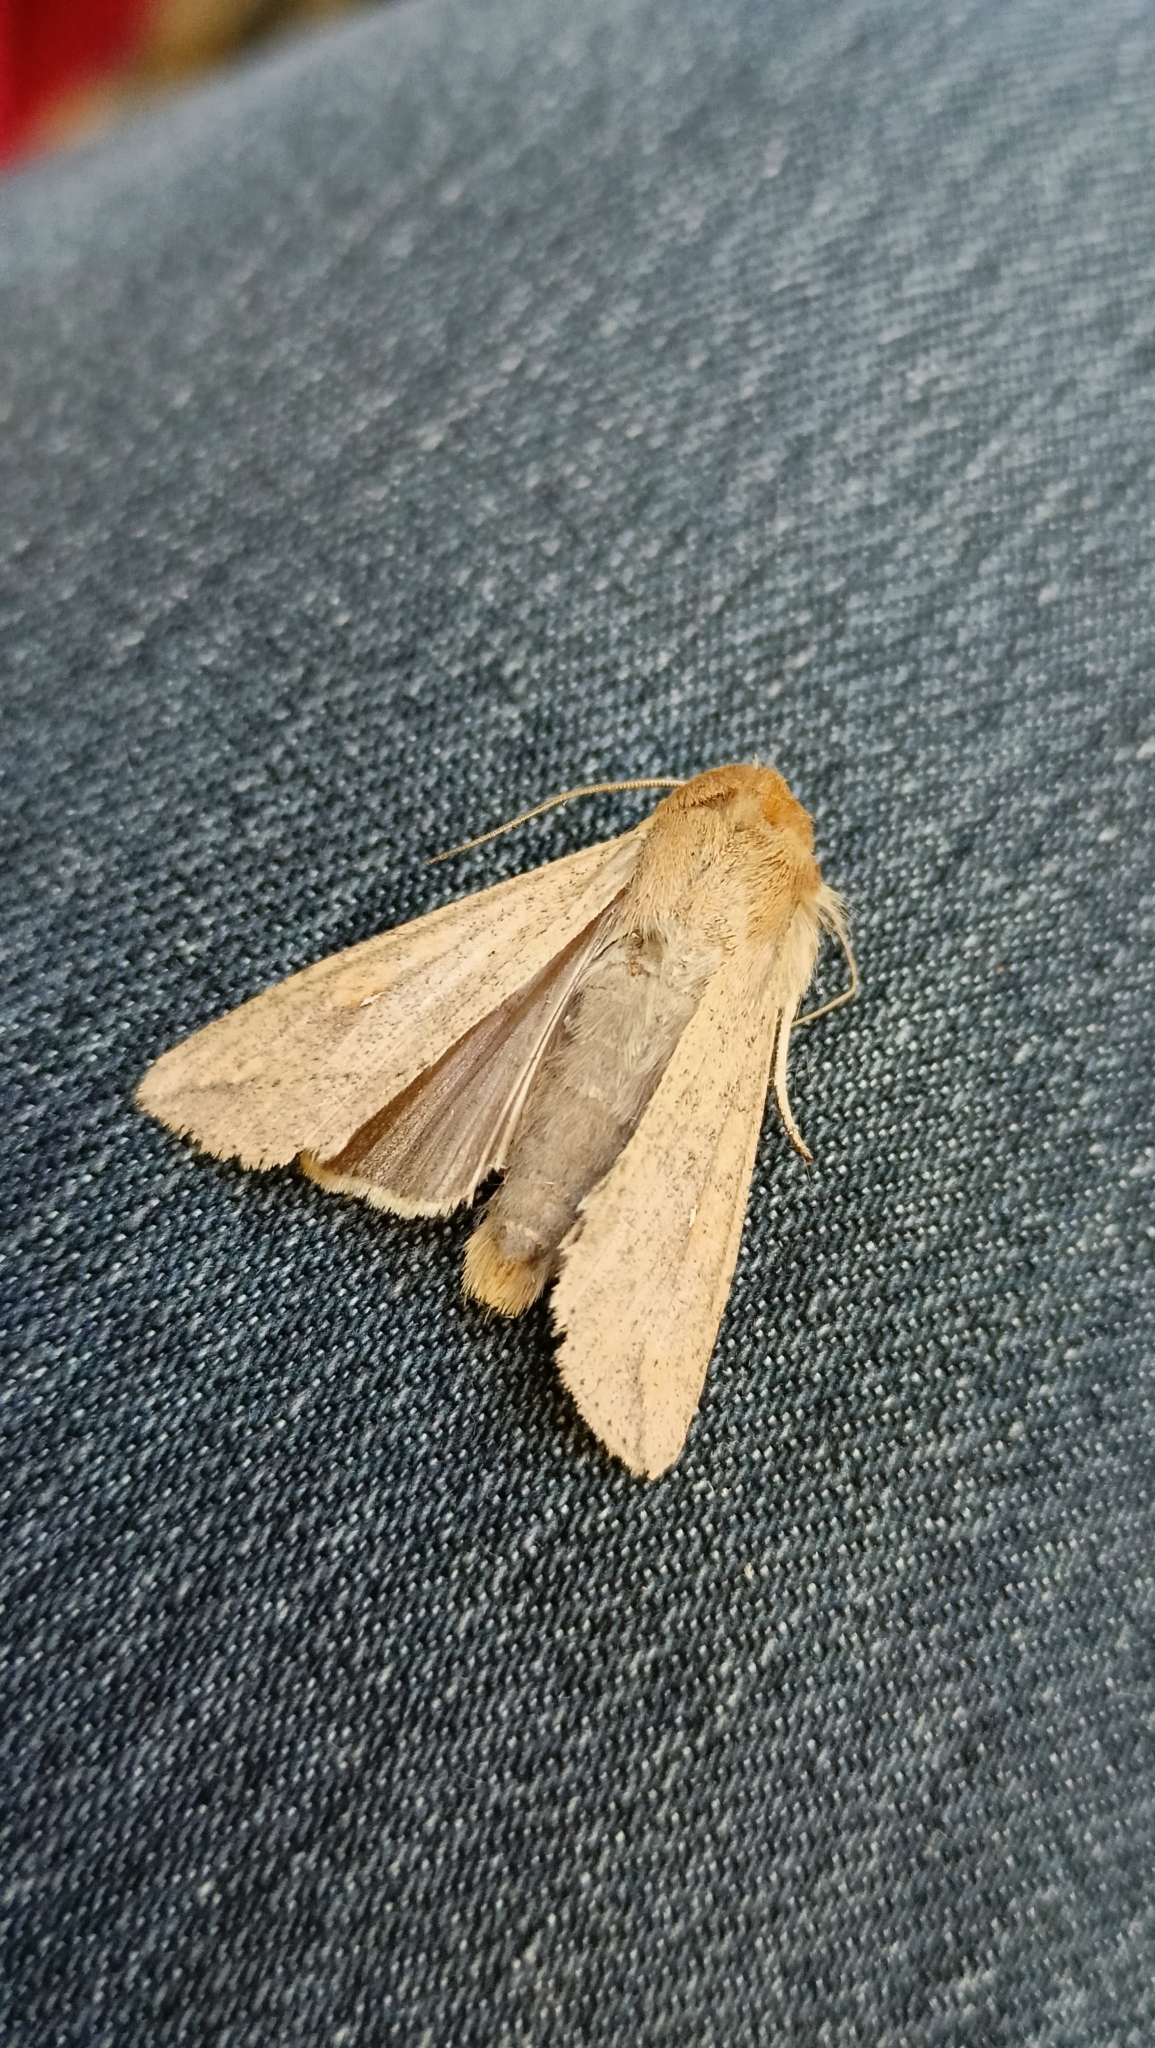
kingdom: Animalia
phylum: Arthropoda
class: Insecta
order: Lepidoptera
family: Noctuidae
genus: Mythimna
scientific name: Mythimna unipuncta
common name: White-speck
